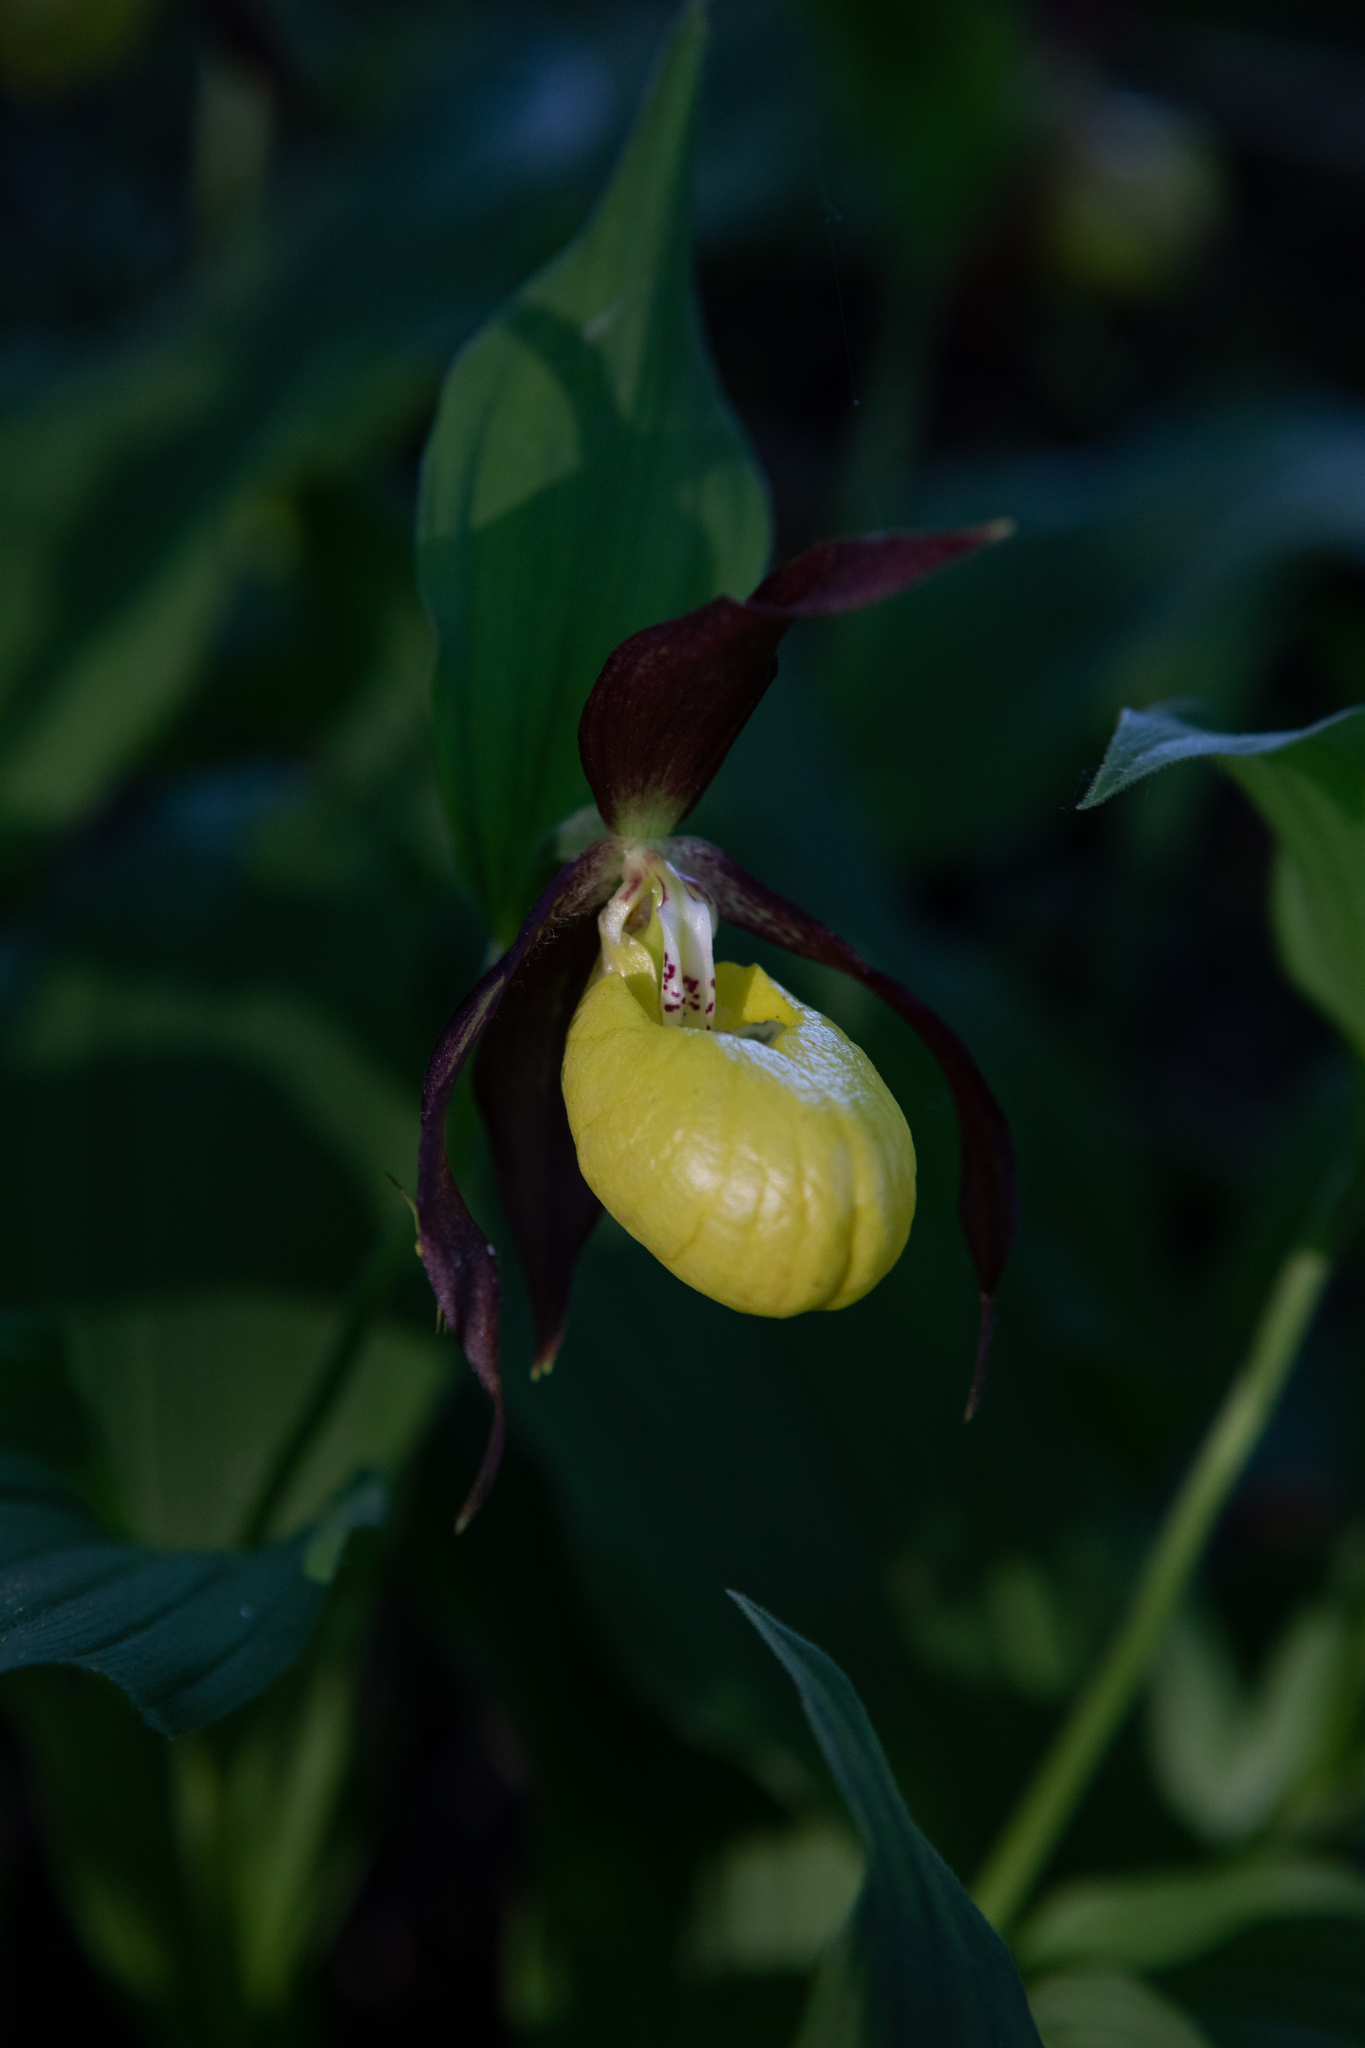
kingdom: Plantae
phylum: Tracheophyta
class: Liliopsida
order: Asparagales
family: Orchidaceae
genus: Cypripedium
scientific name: Cypripedium calceolus
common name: Lady's-slipper
